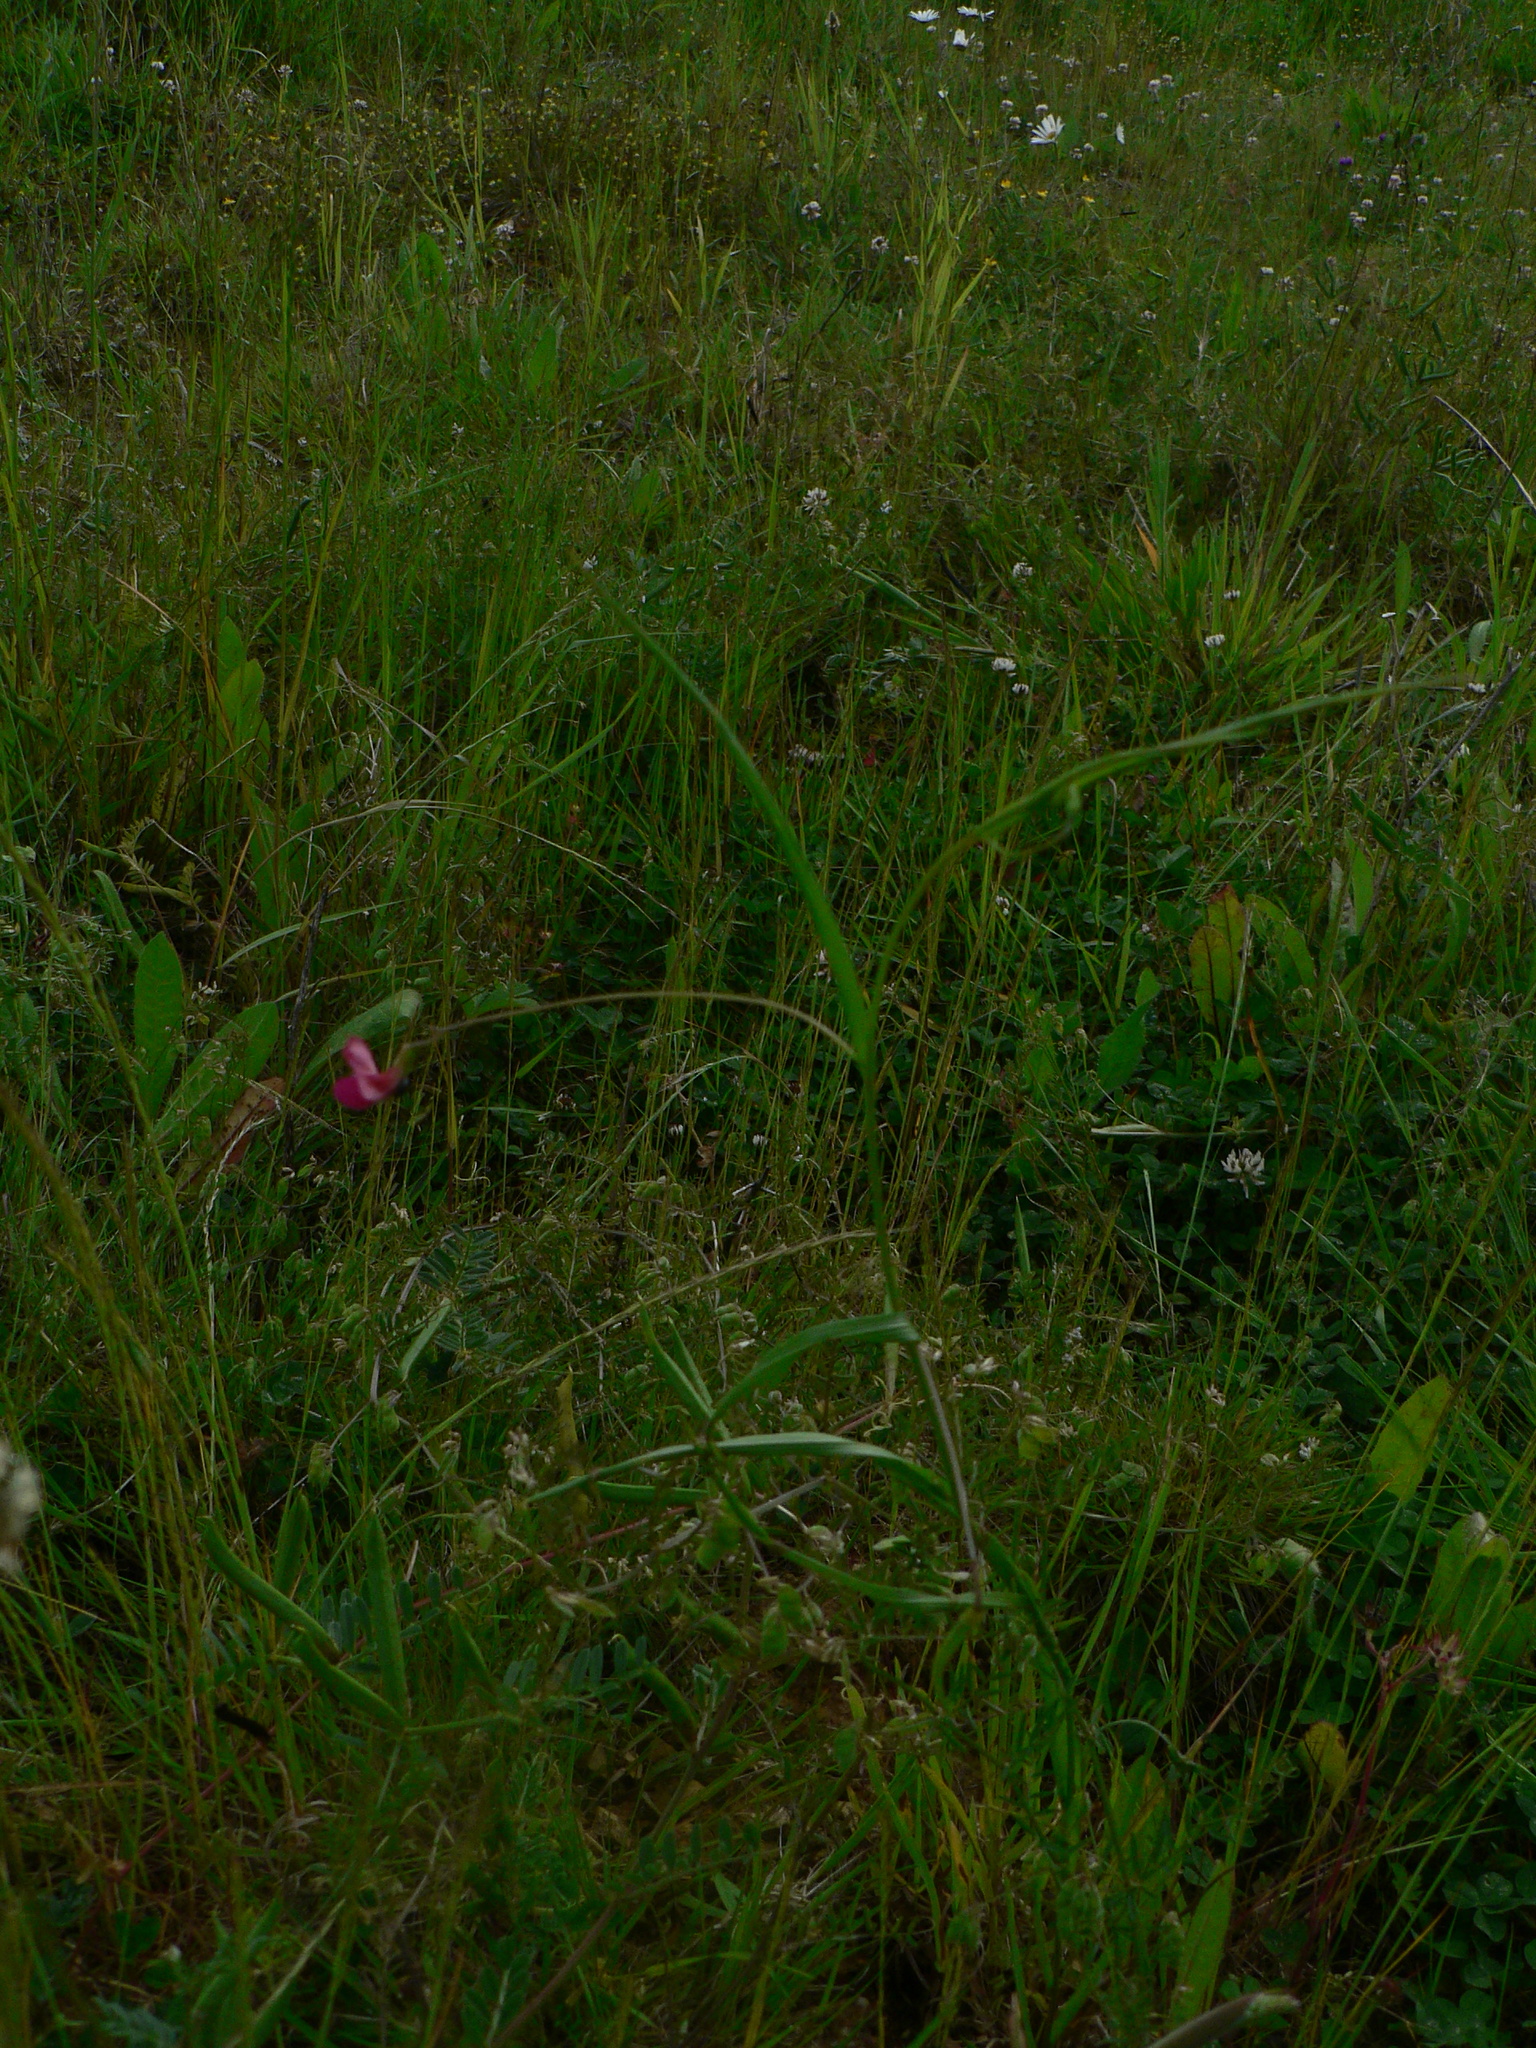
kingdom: Plantae
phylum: Tracheophyta
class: Magnoliopsida
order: Fabales
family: Fabaceae
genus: Lathyrus
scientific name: Lathyrus nissolia
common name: Grass vetchling
